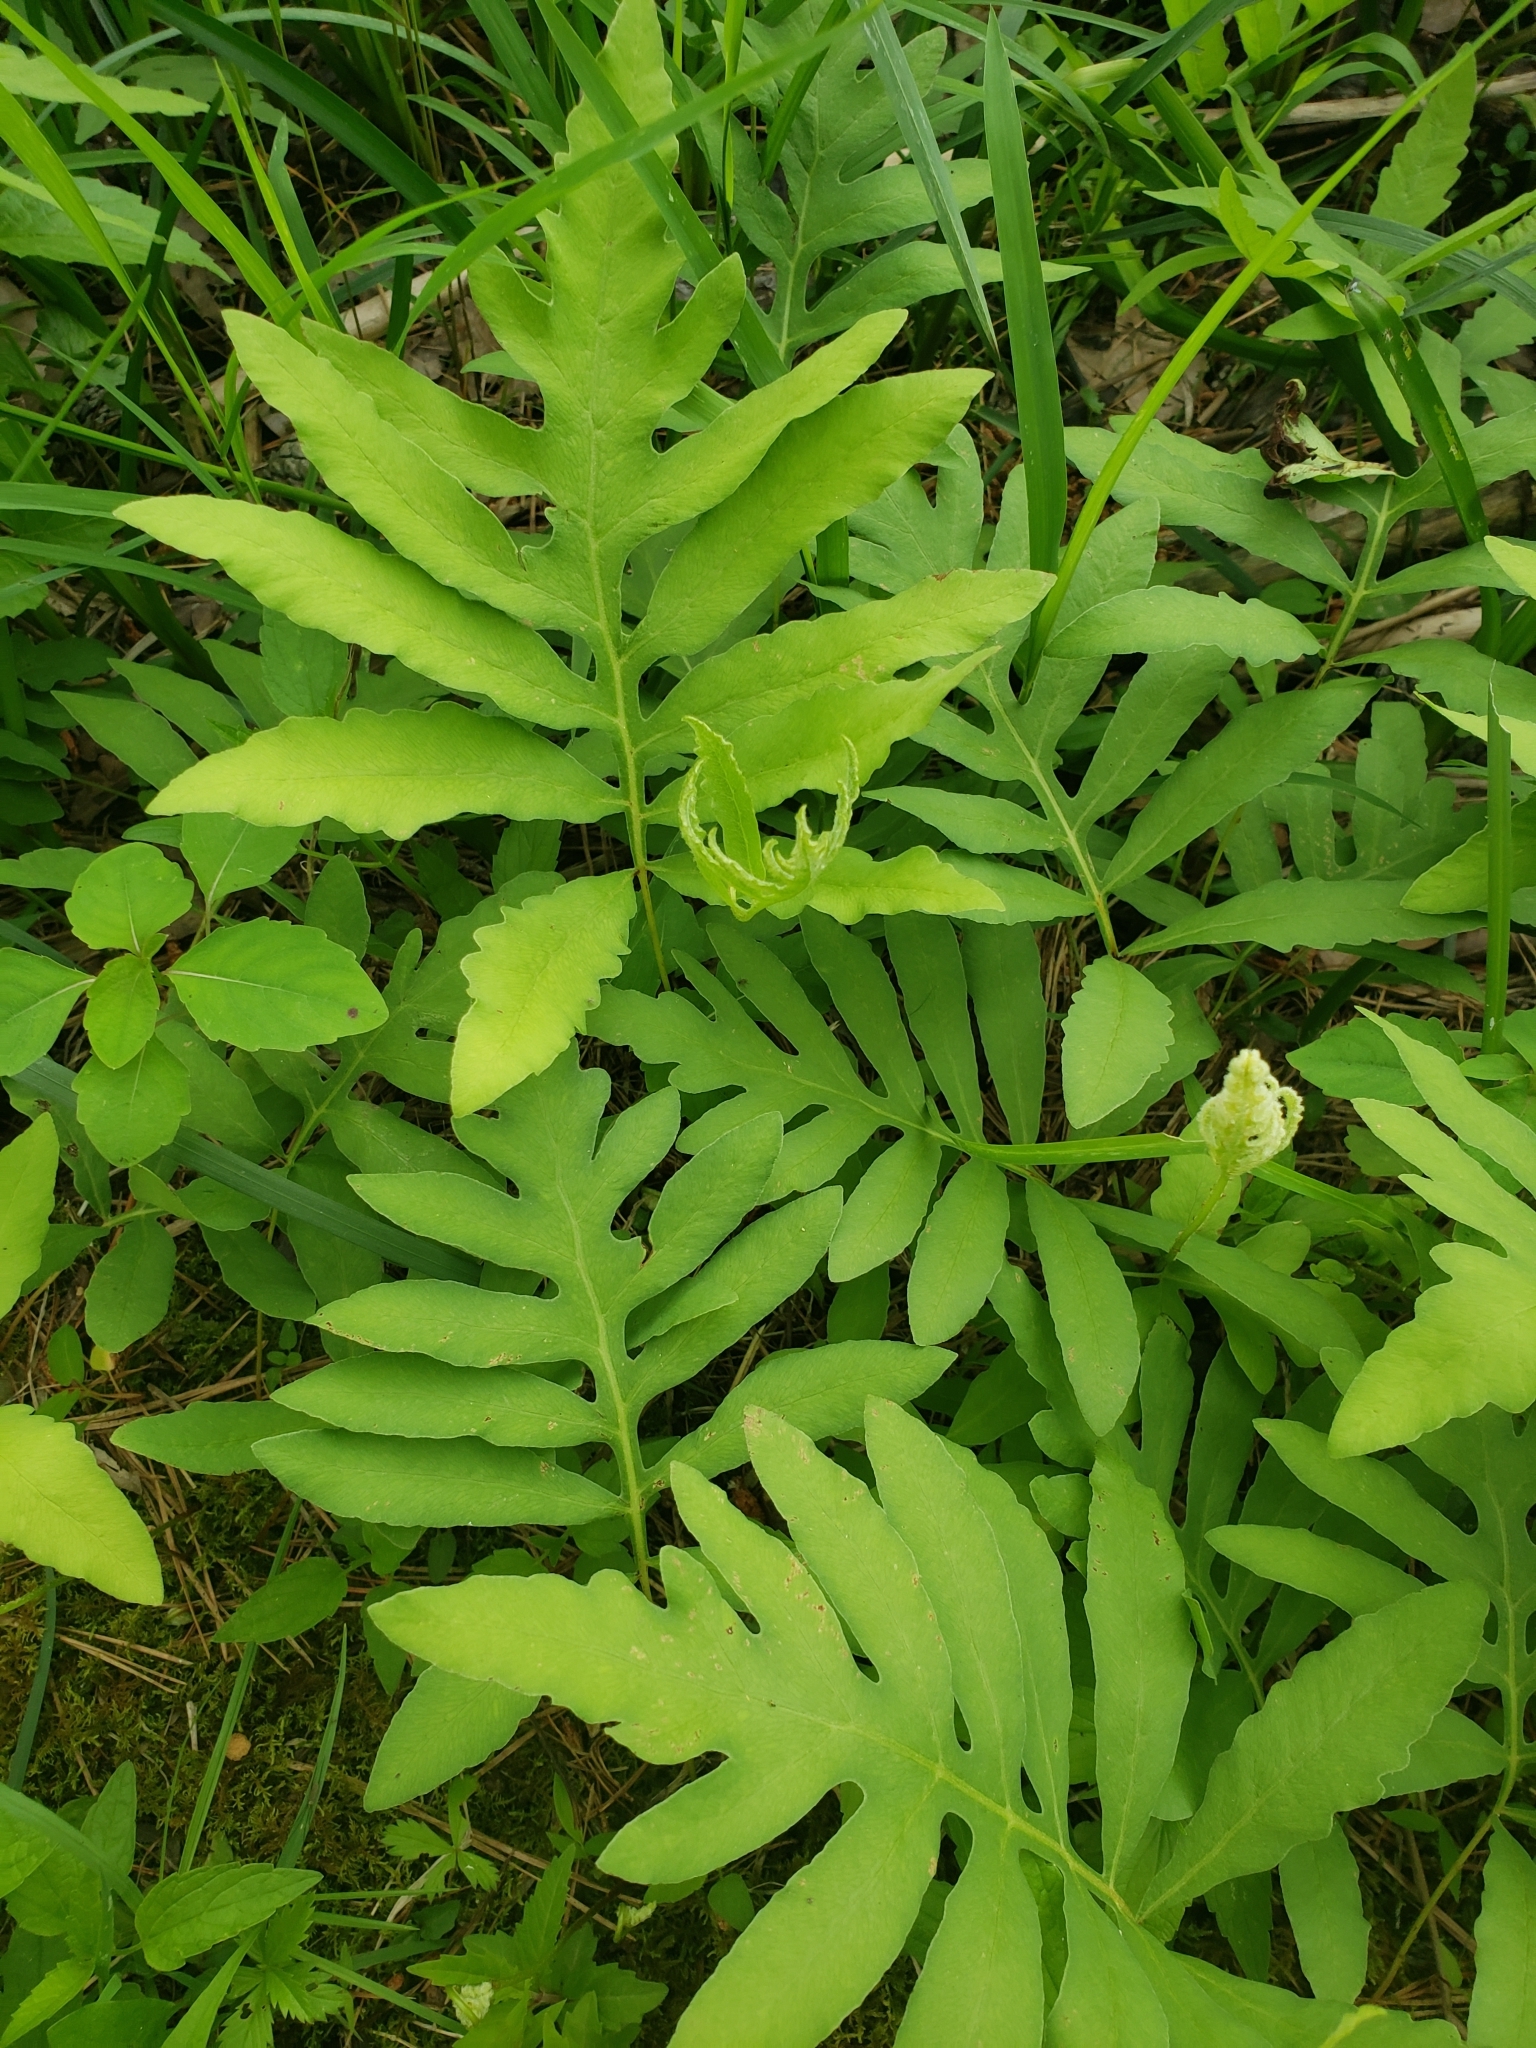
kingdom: Plantae
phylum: Tracheophyta
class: Polypodiopsida
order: Polypodiales
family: Onocleaceae
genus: Onoclea
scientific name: Onoclea sensibilis
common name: Sensitive fern
